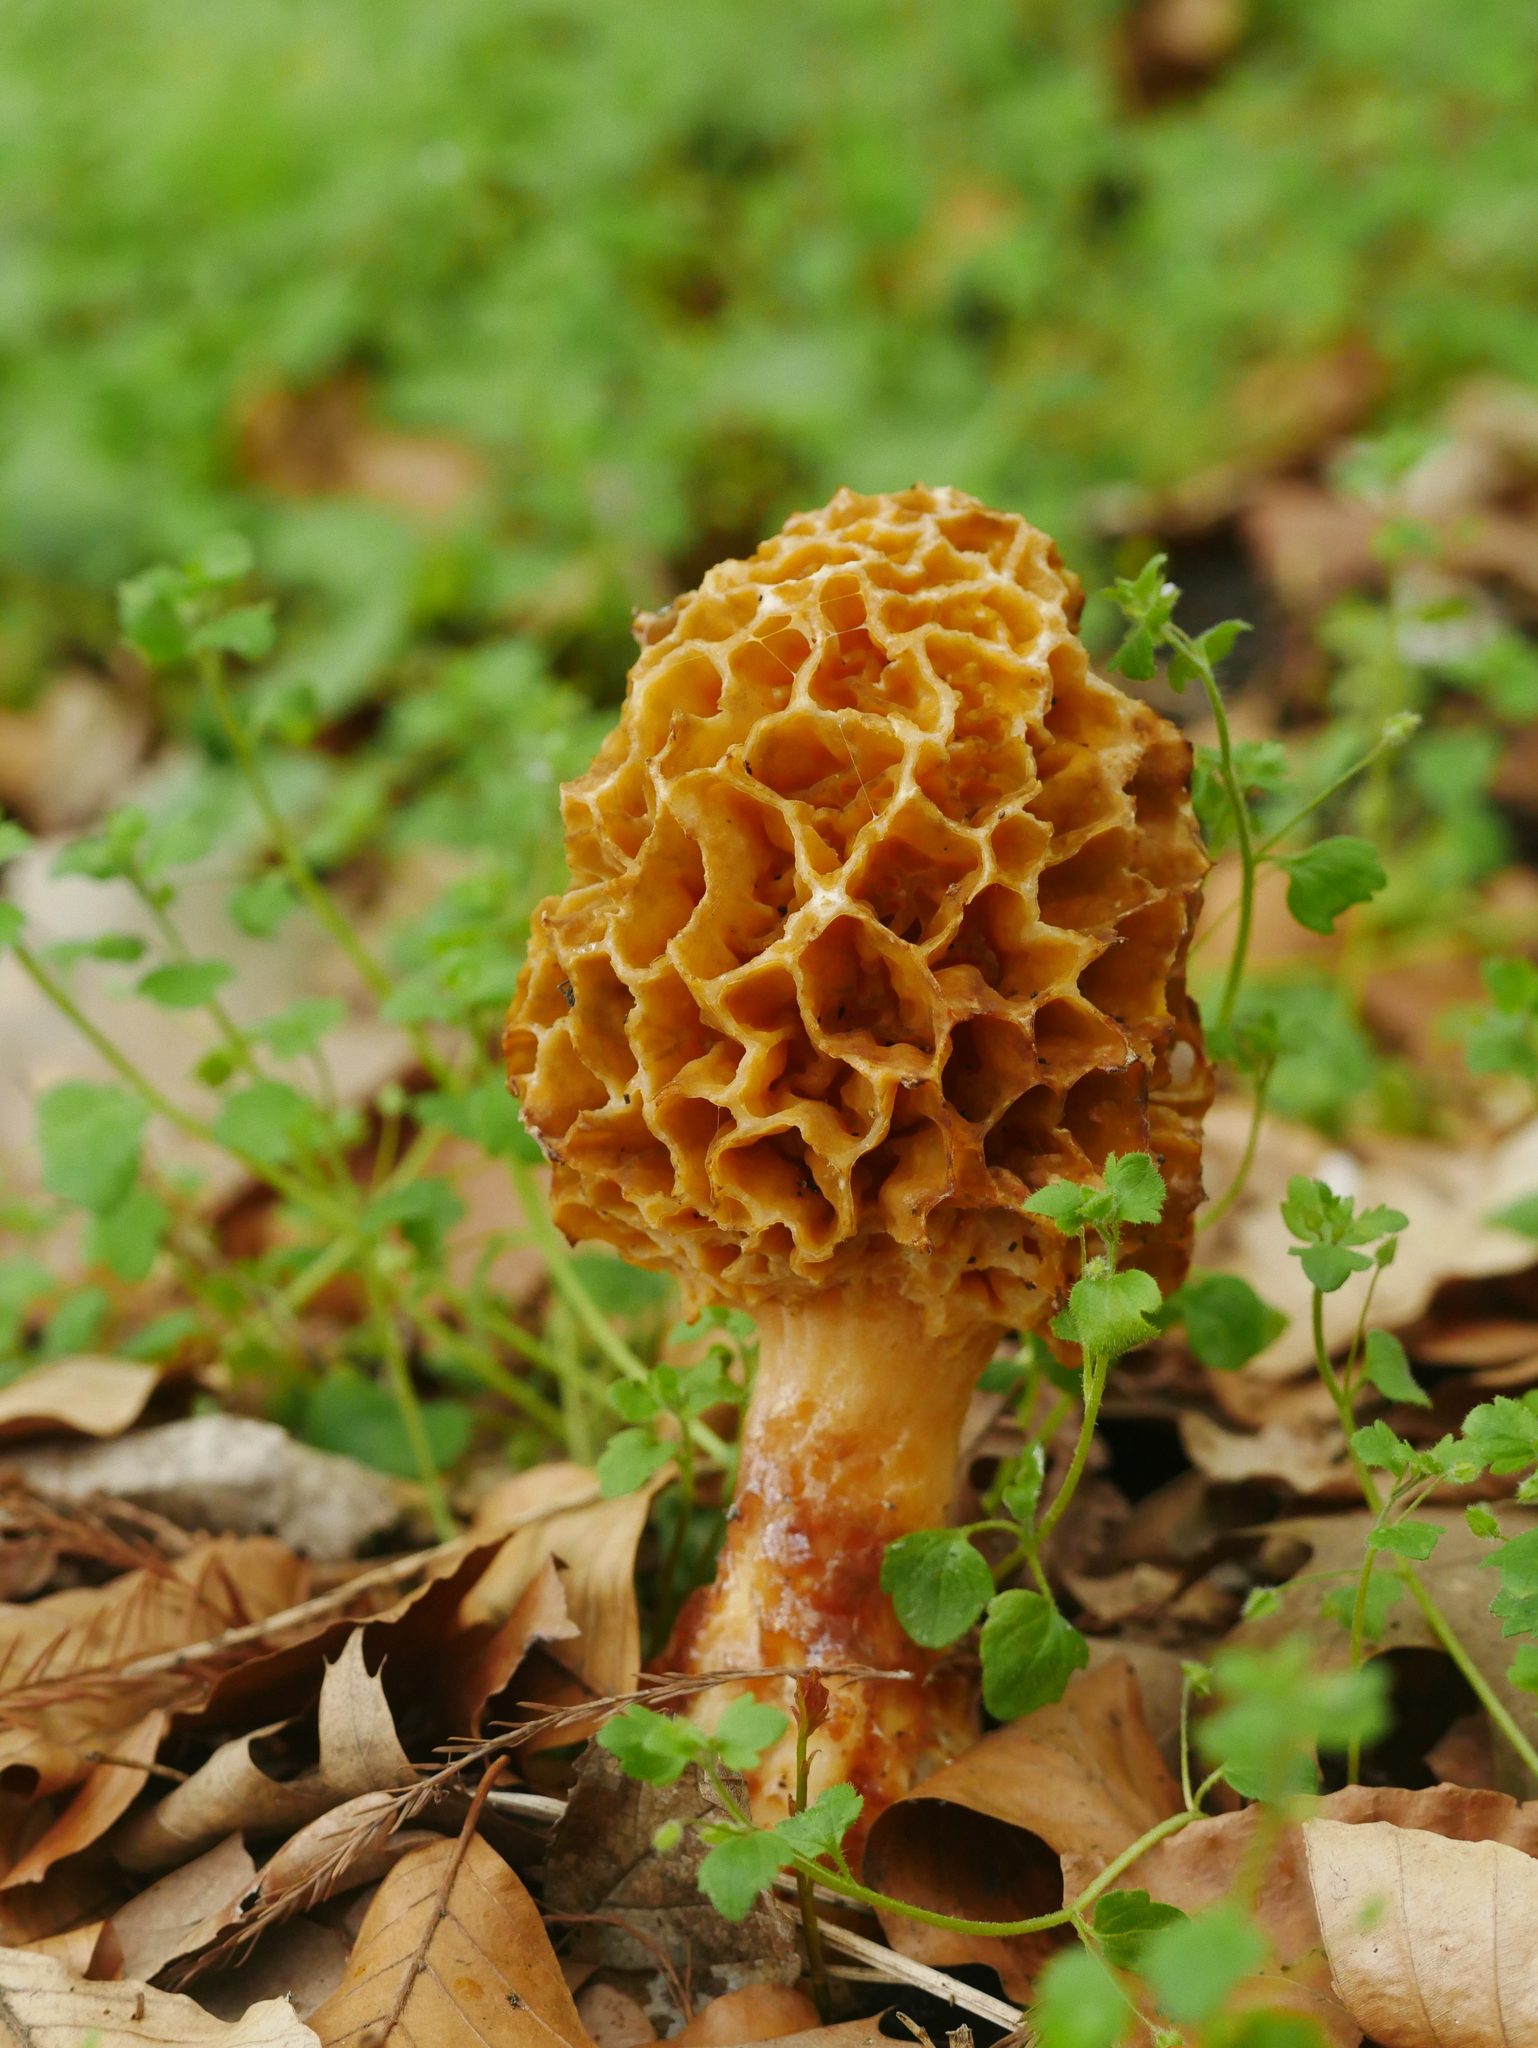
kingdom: Fungi
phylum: Ascomycota
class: Pezizomycetes
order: Pezizales
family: Morchellaceae
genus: Morchella
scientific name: Morchella esculenta
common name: Morel
